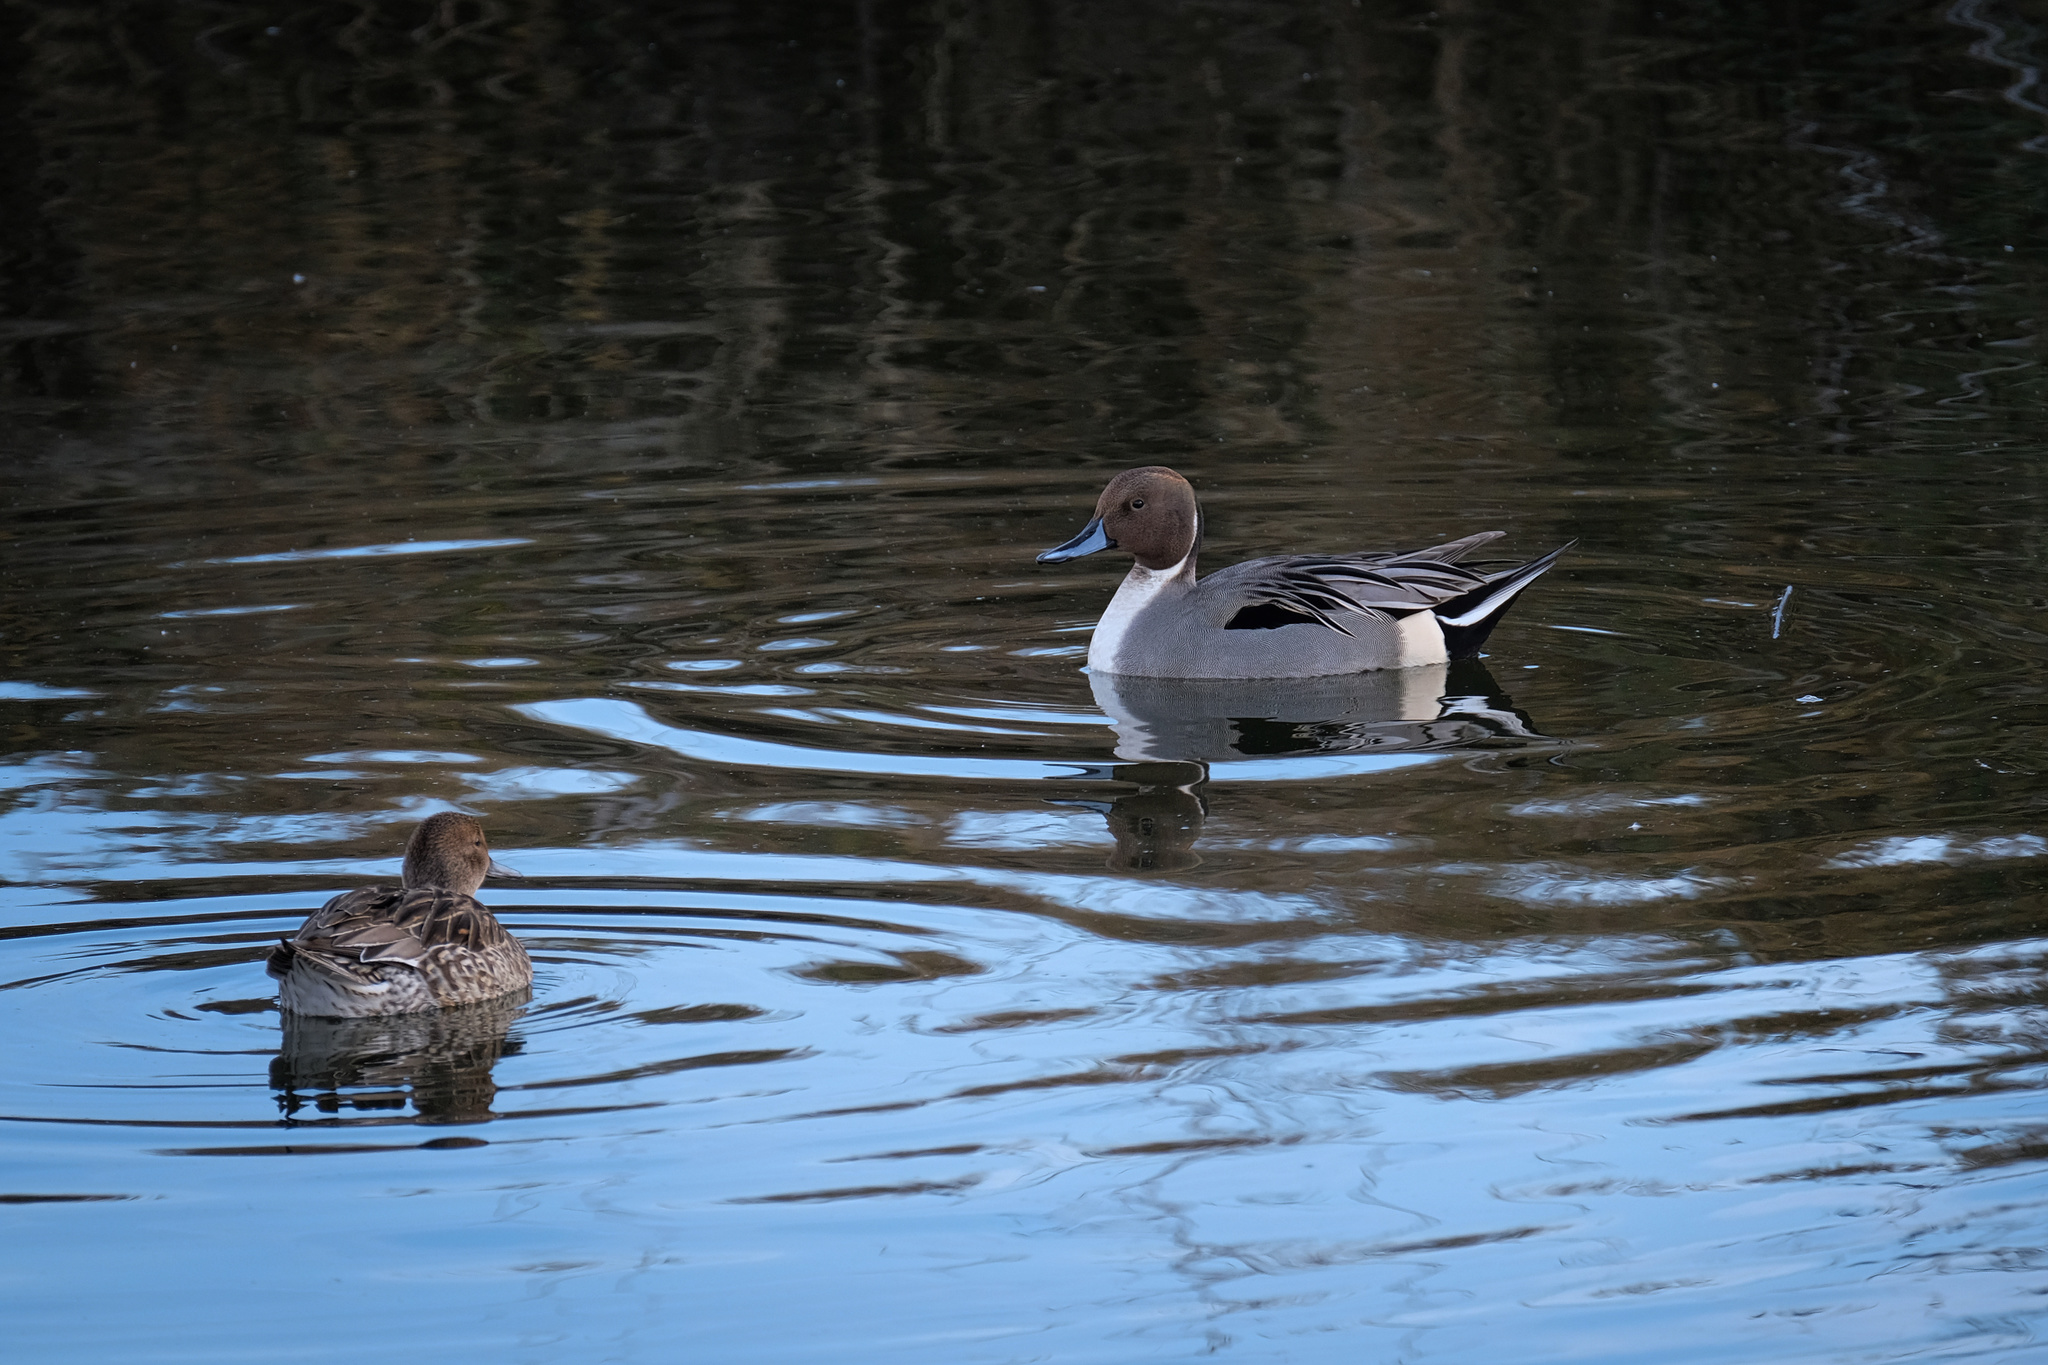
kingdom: Animalia
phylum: Chordata
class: Aves
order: Anseriformes
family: Anatidae
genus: Anas
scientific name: Anas acuta
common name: Northern pintail
